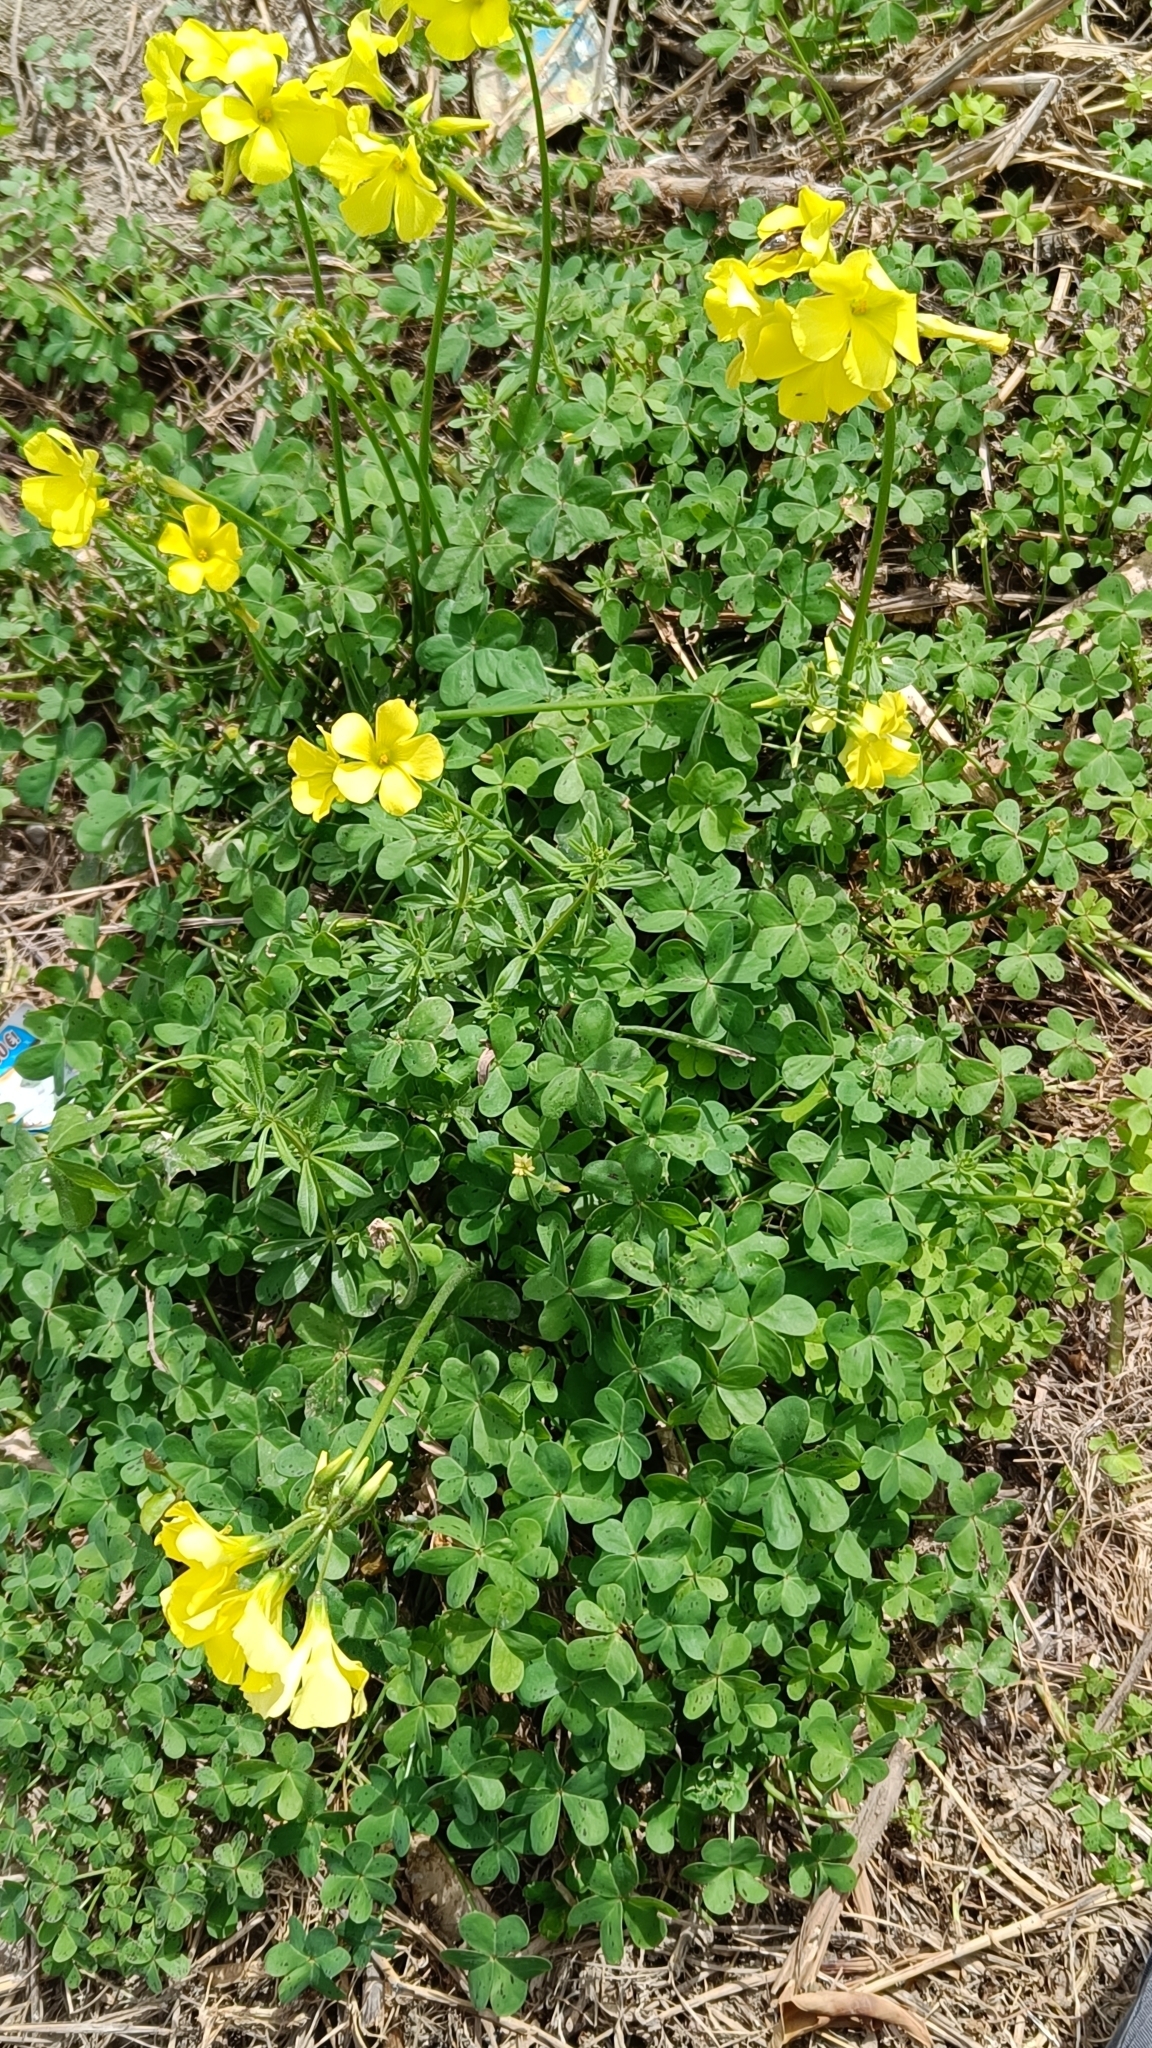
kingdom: Plantae
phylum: Tracheophyta
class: Magnoliopsida
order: Oxalidales
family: Oxalidaceae
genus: Oxalis
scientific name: Oxalis pes-caprae
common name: Bermuda-buttercup
